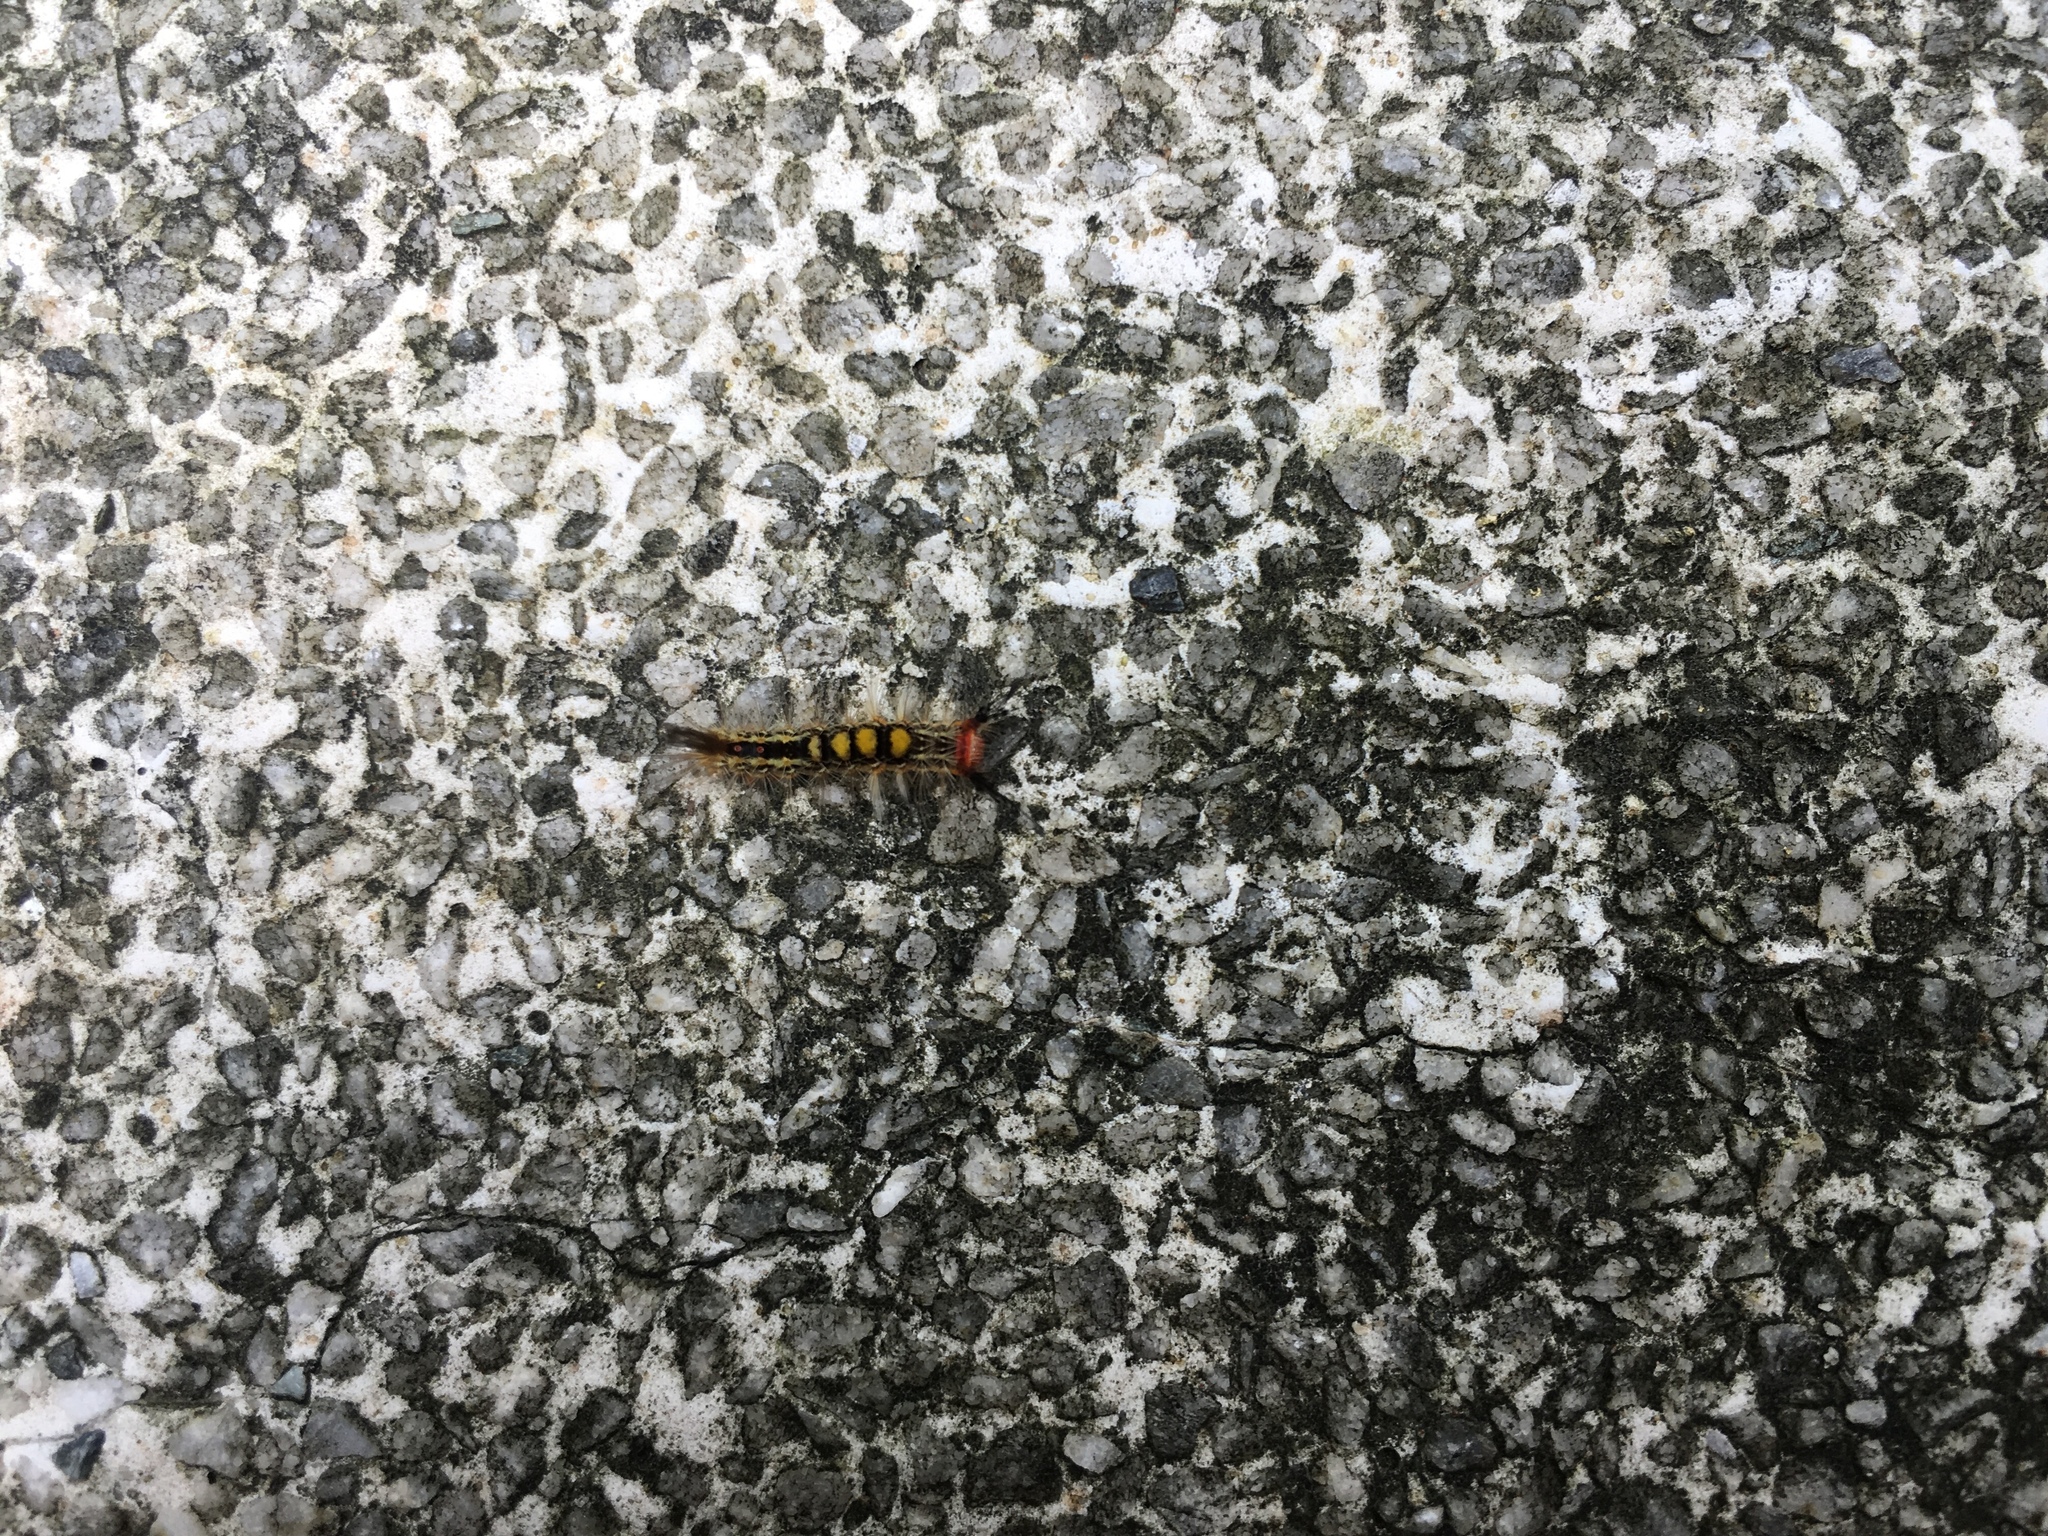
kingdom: Animalia
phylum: Arthropoda
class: Insecta
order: Lepidoptera
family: Erebidae
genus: Orgyia
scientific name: Orgyia postica
